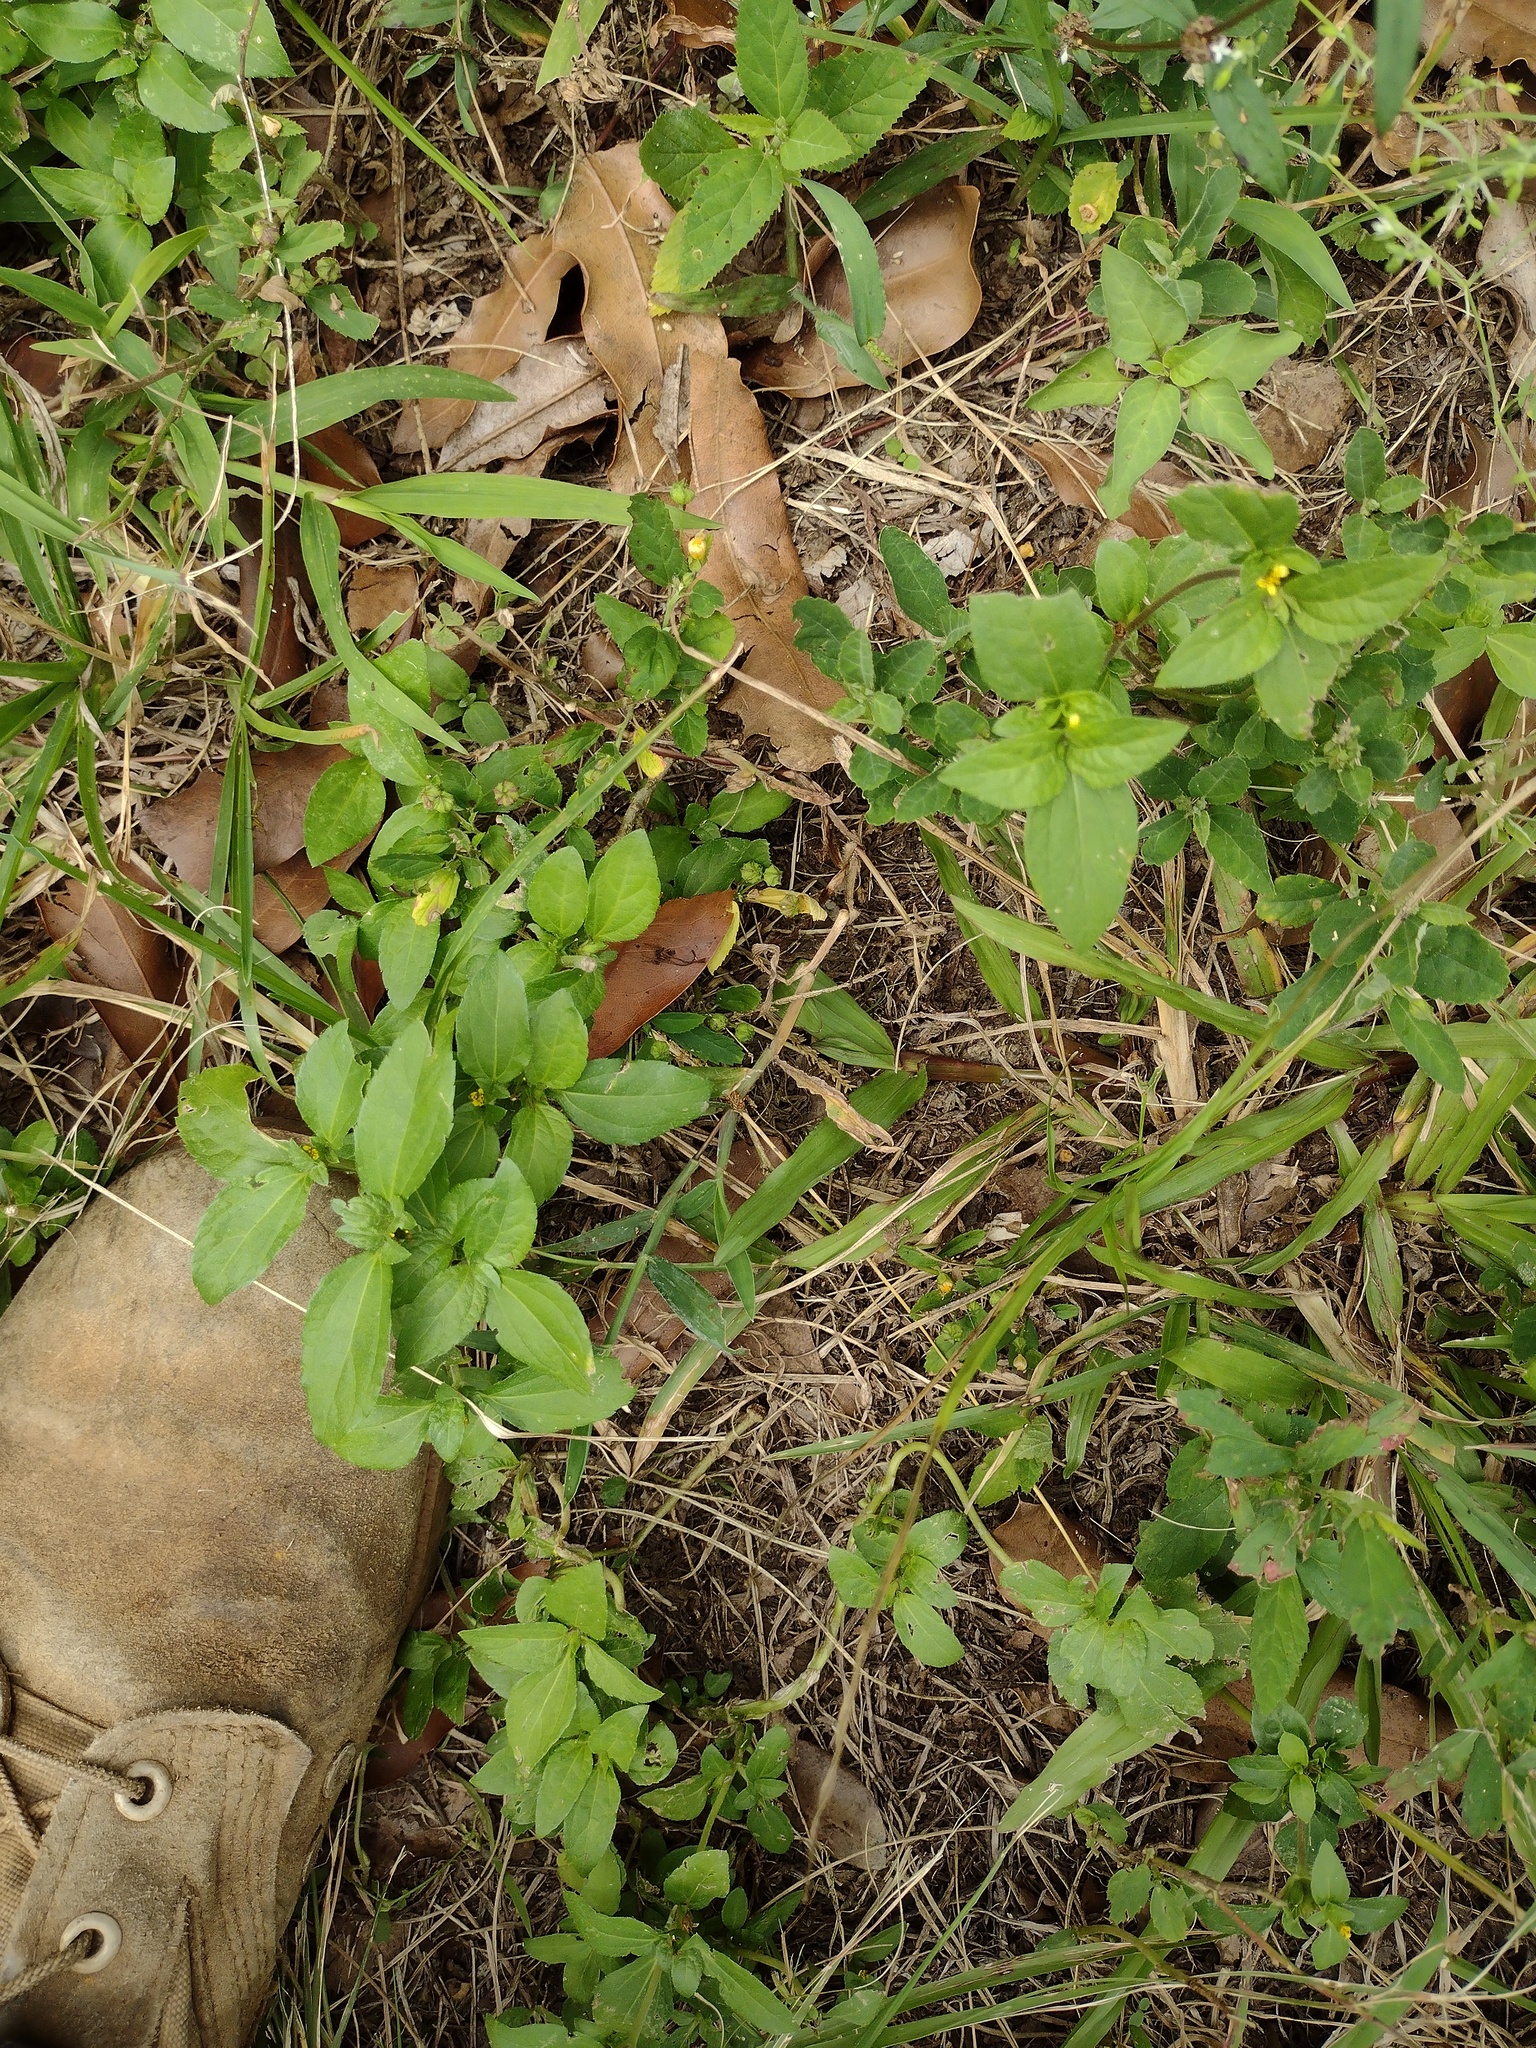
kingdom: Plantae
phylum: Tracheophyta
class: Magnoliopsida
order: Asterales
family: Asteraceae
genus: Synedrella
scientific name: Synedrella nodiflora
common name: Nodeweed
